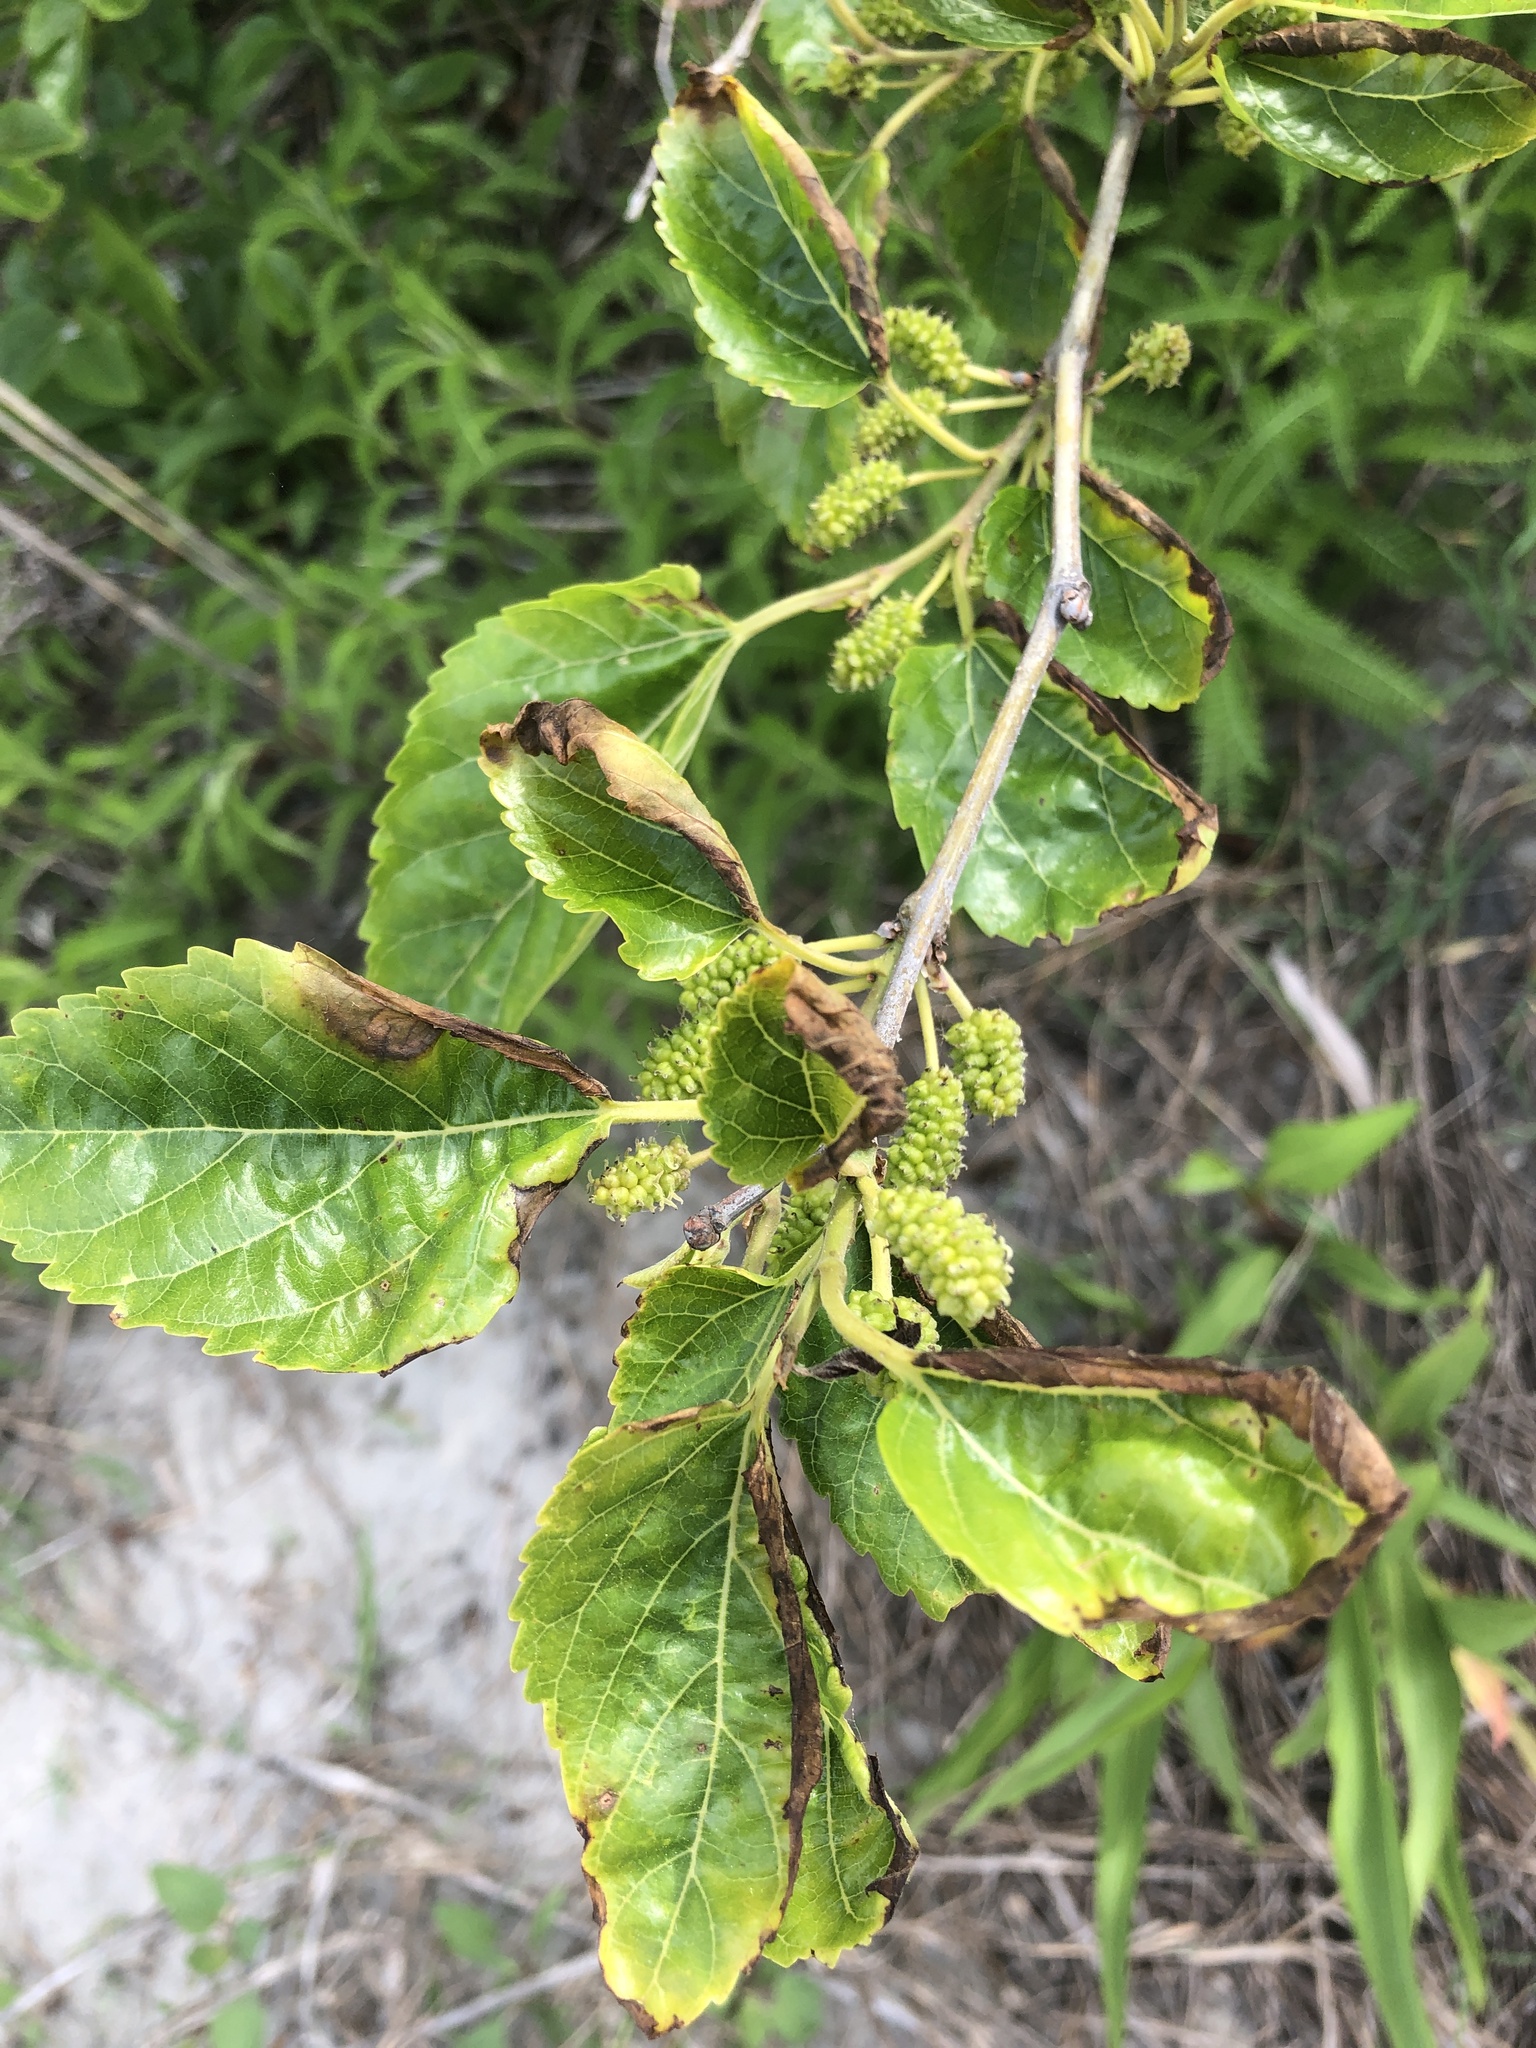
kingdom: Plantae
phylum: Tracheophyta
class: Magnoliopsida
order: Rosales
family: Moraceae
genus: Morus
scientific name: Morus alba
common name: White mulberry
